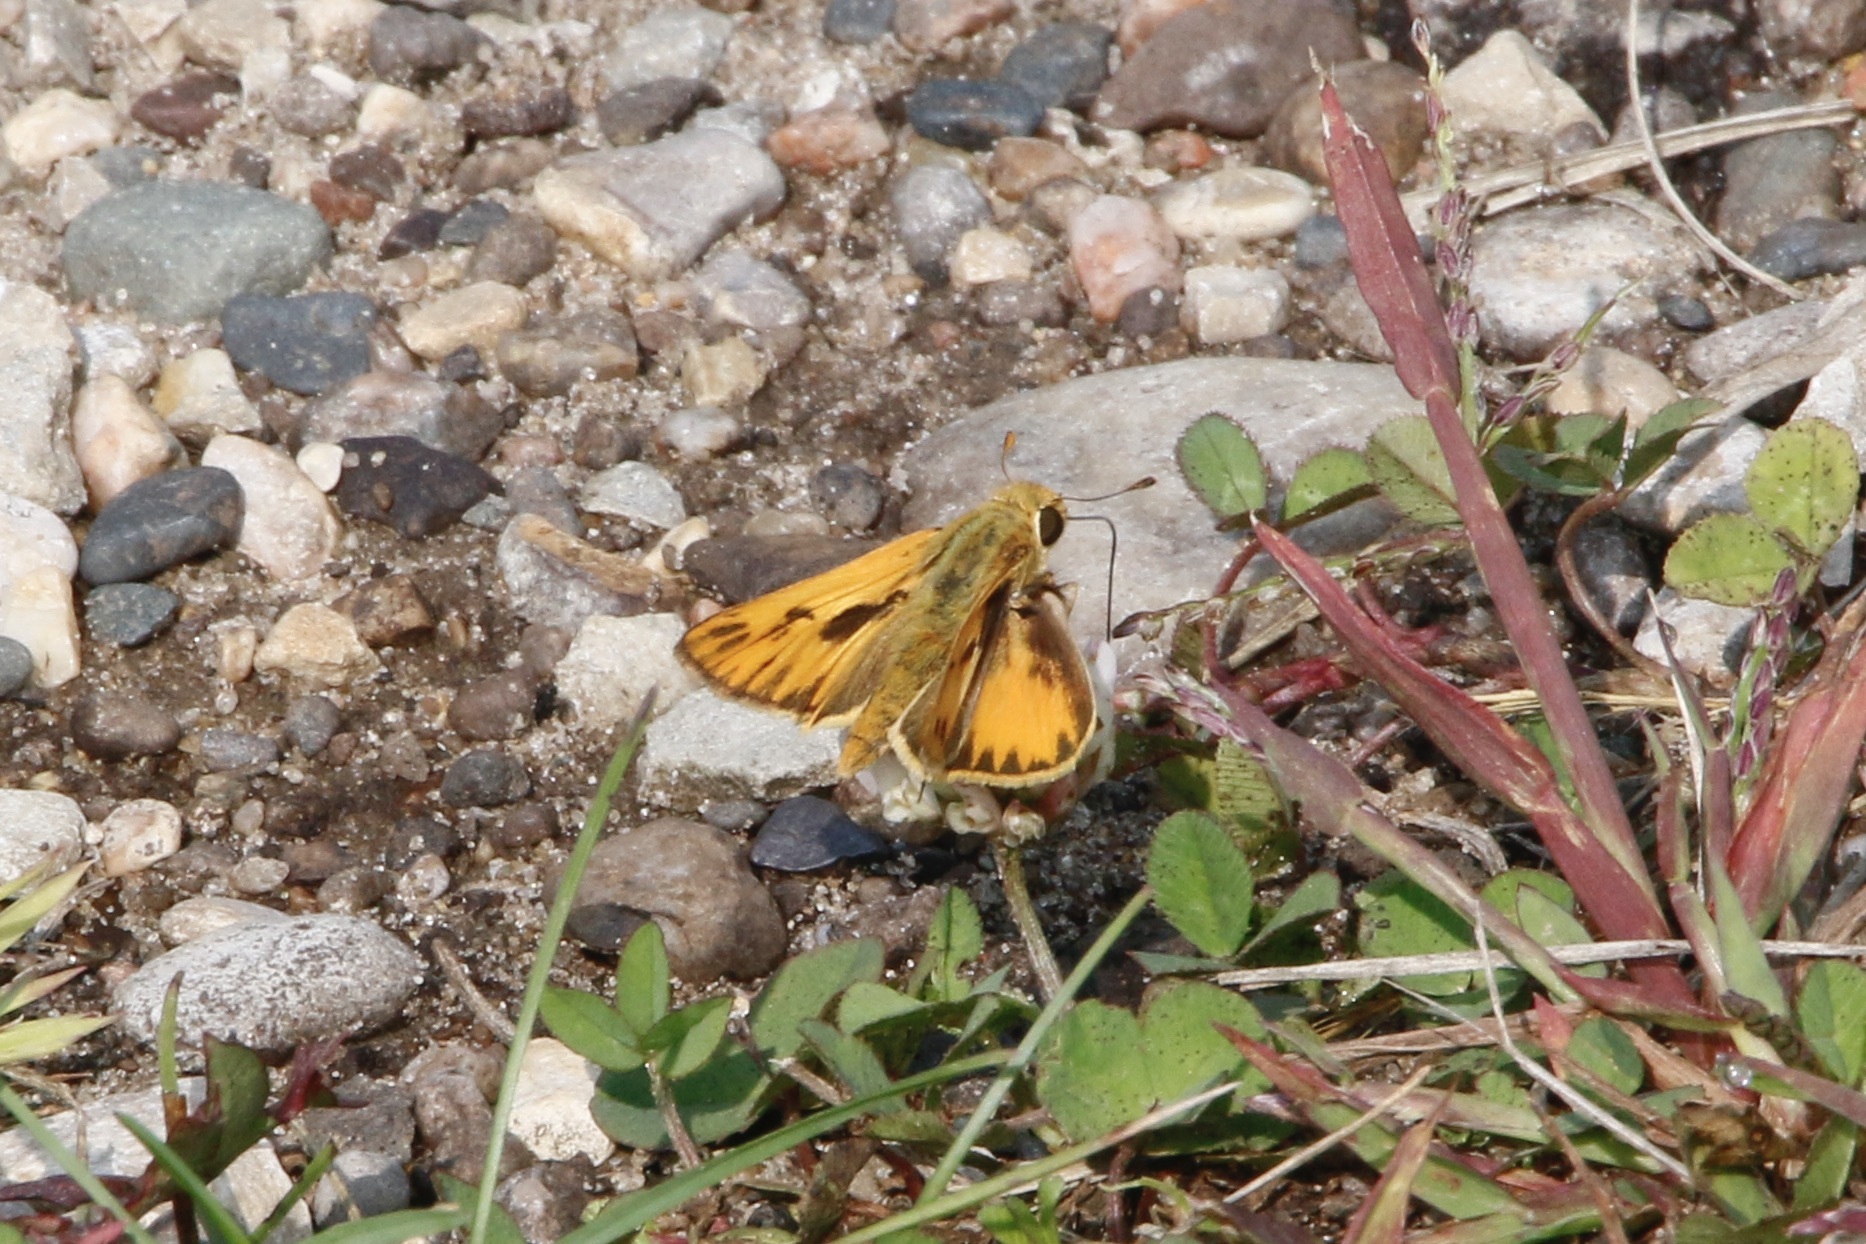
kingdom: Animalia
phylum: Arthropoda
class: Insecta
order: Lepidoptera
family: Hesperiidae
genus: Hylephila
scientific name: Hylephila phyleus
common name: Fiery skipper
